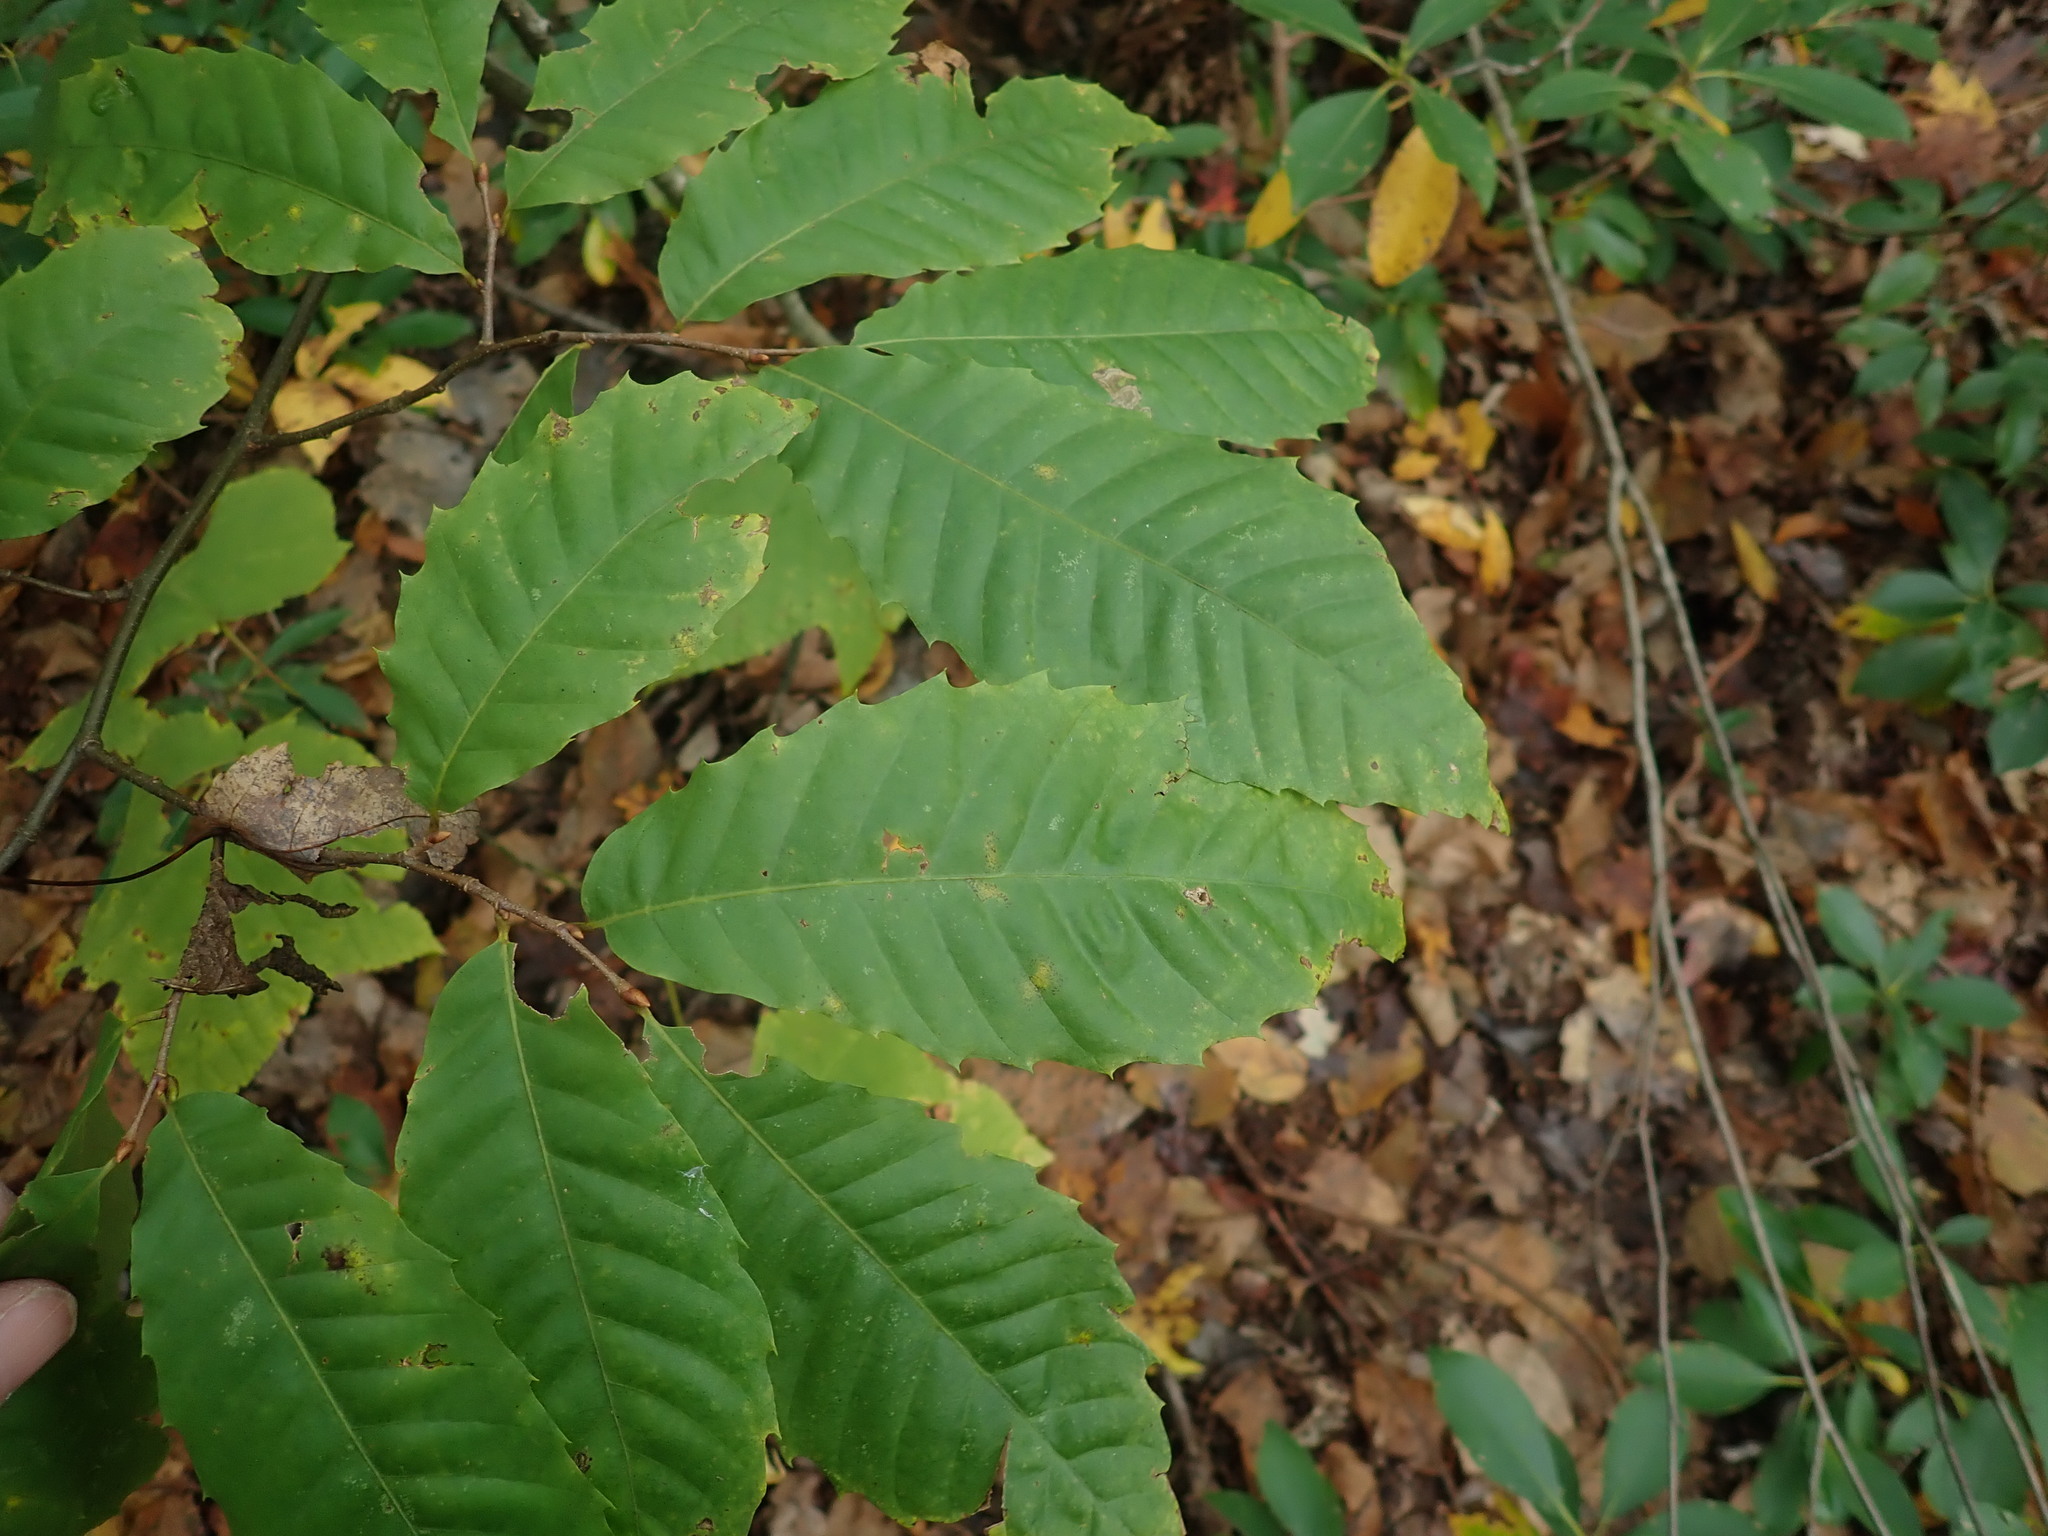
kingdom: Plantae
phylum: Tracheophyta
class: Magnoliopsida
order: Fagales
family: Fagaceae
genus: Castanea
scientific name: Castanea dentata
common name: American chestnut
